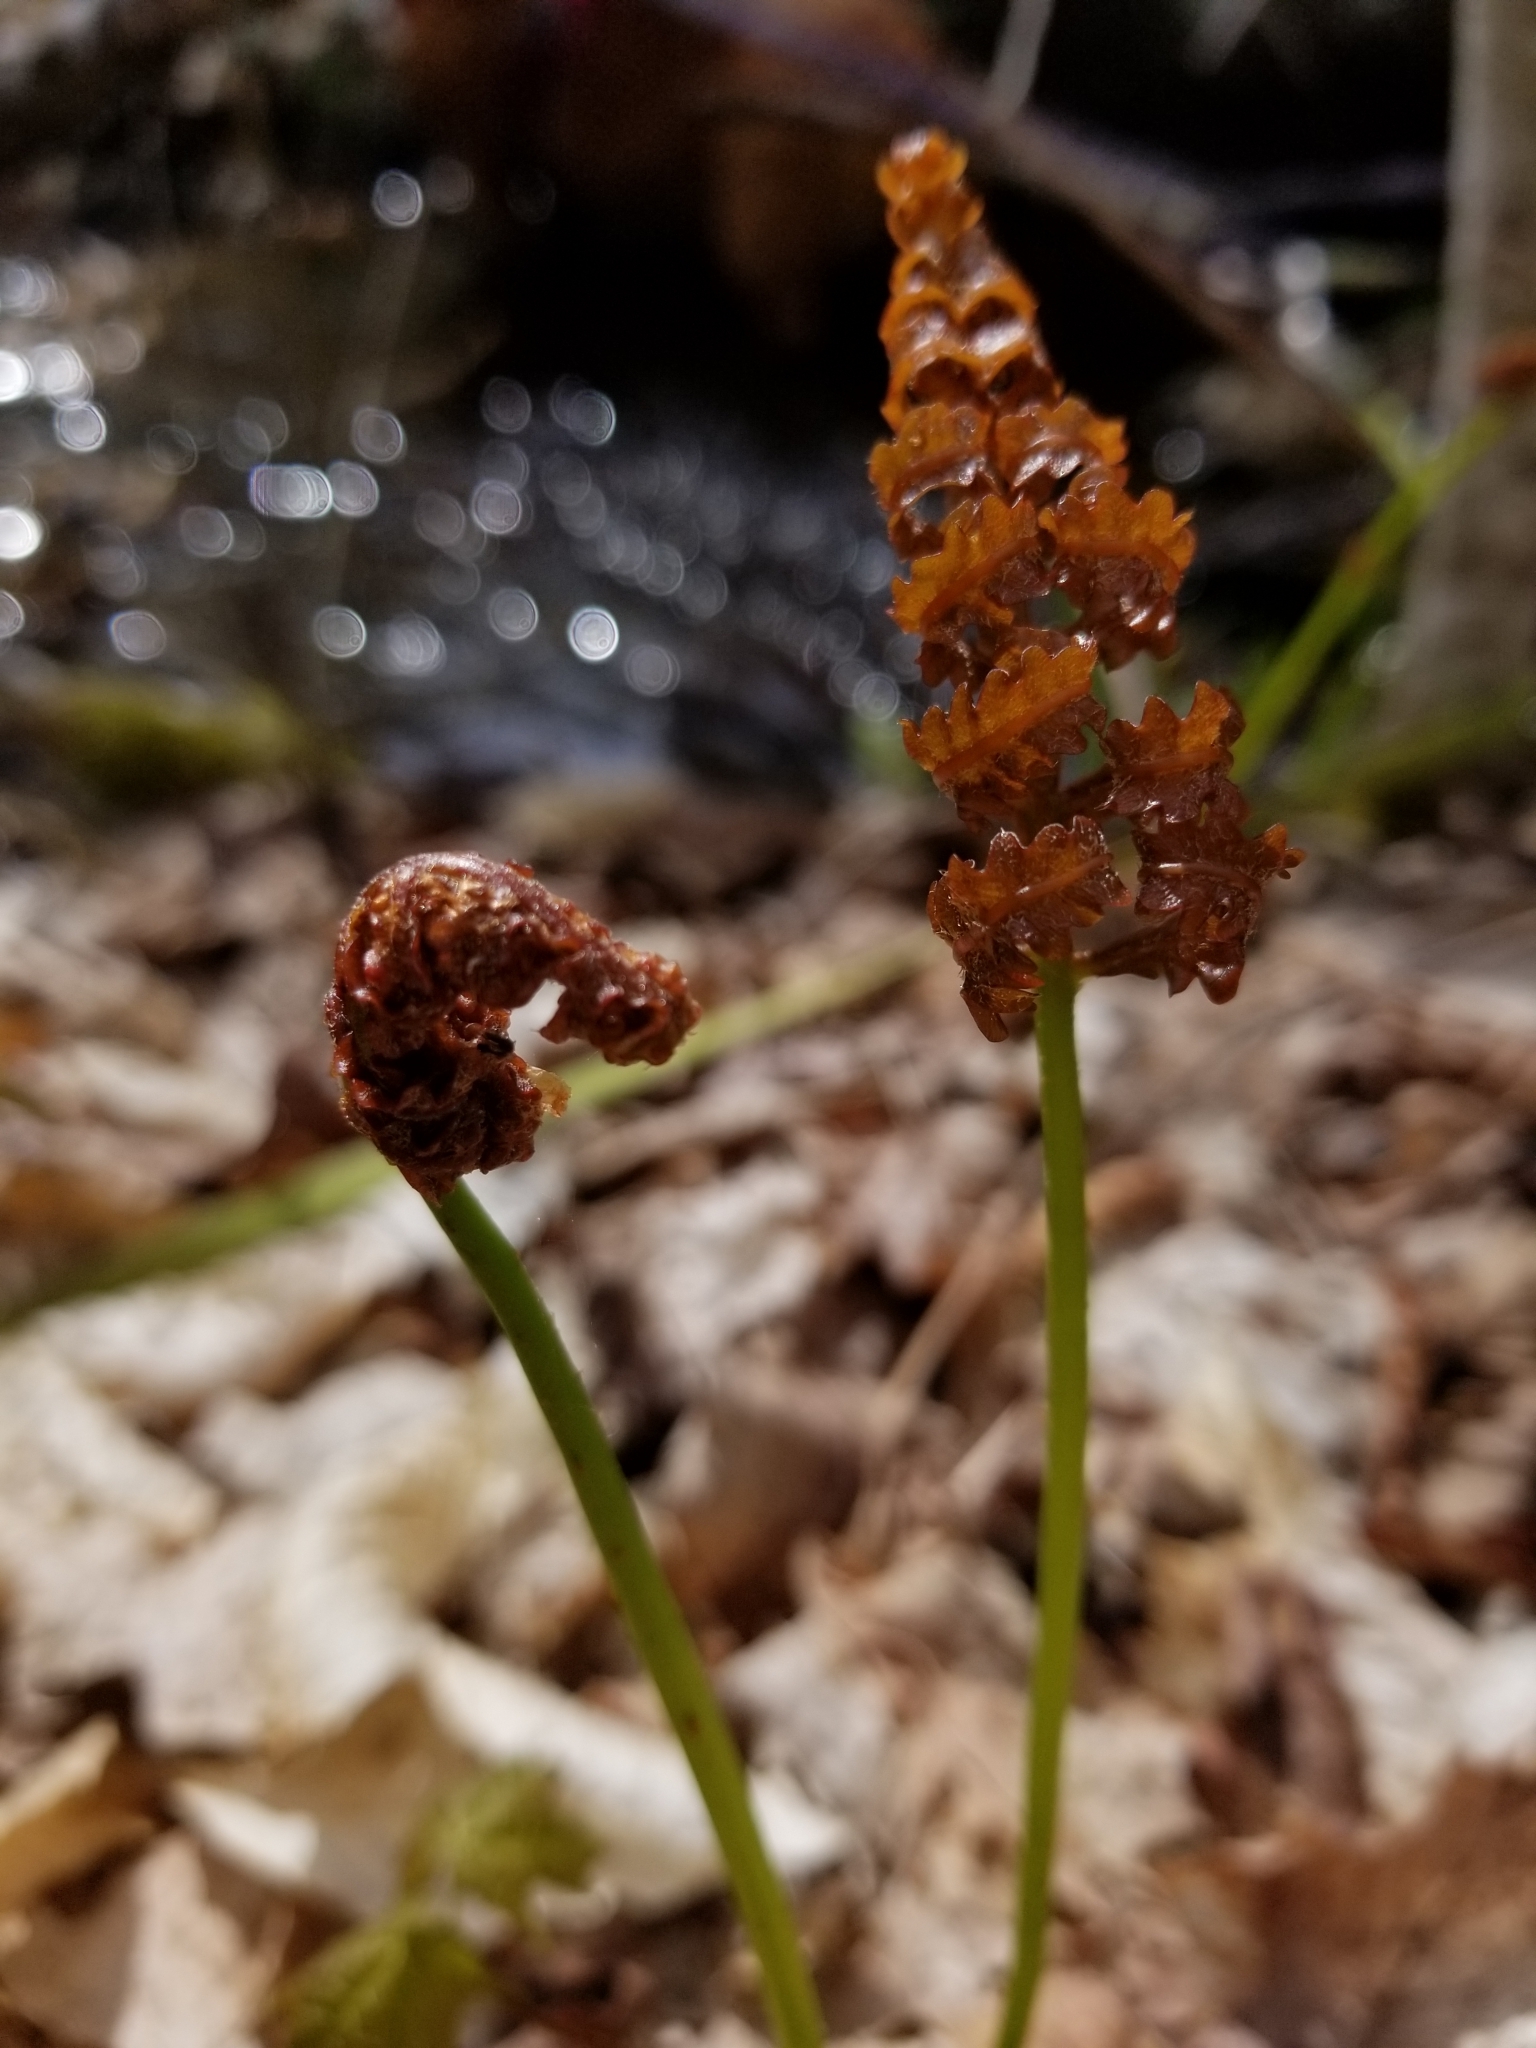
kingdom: Plantae
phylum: Tracheophyta
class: Polypodiopsida
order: Polypodiales
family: Onocleaceae
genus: Onoclea
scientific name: Onoclea sensibilis
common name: Sensitive fern
